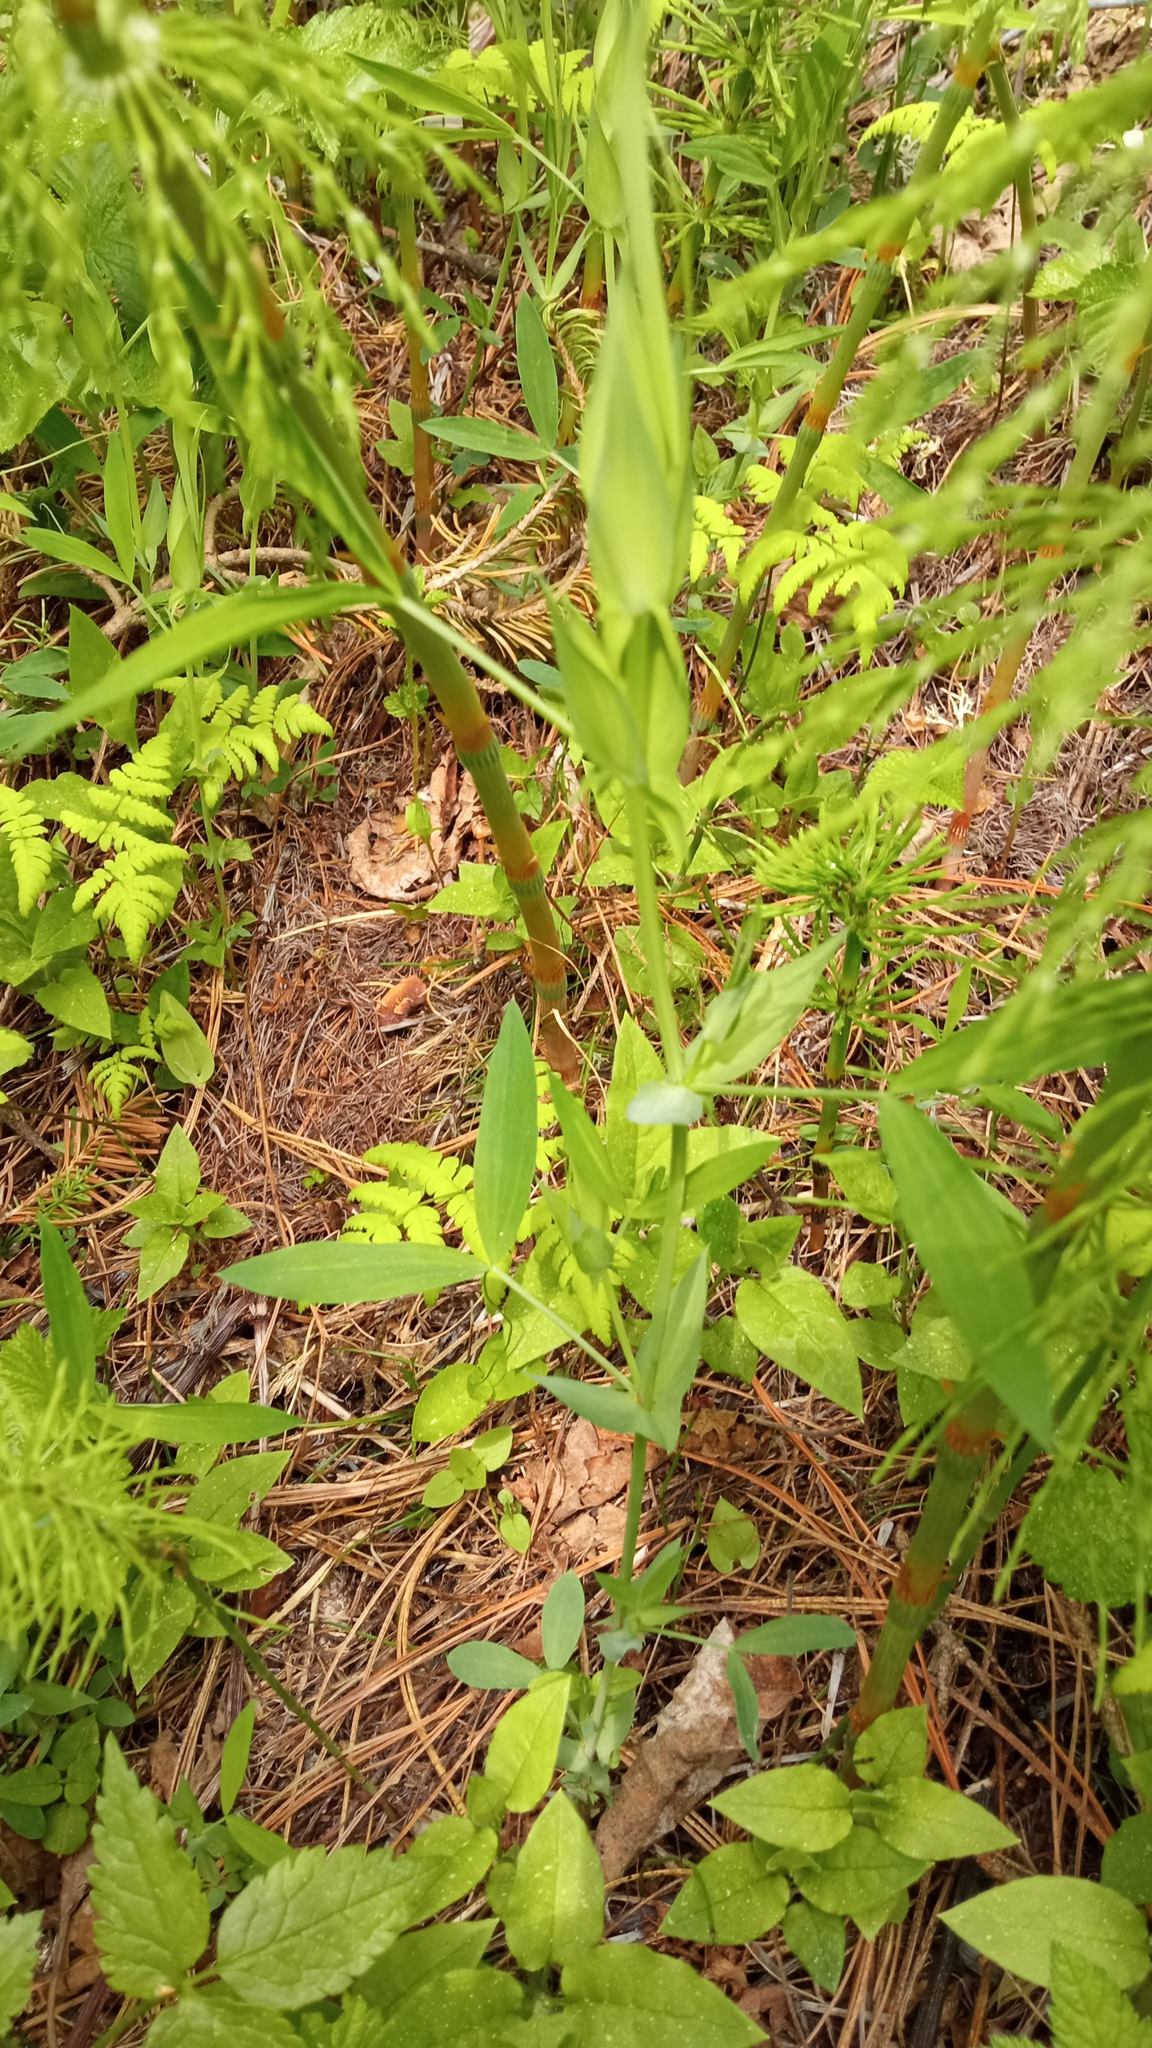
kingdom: Plantae
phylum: Tracheophyta
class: Magnoliopsida
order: Fabales
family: Fabaceae
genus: Lathyrus
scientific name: Lathyrus pratensis
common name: Meadow vetchling
